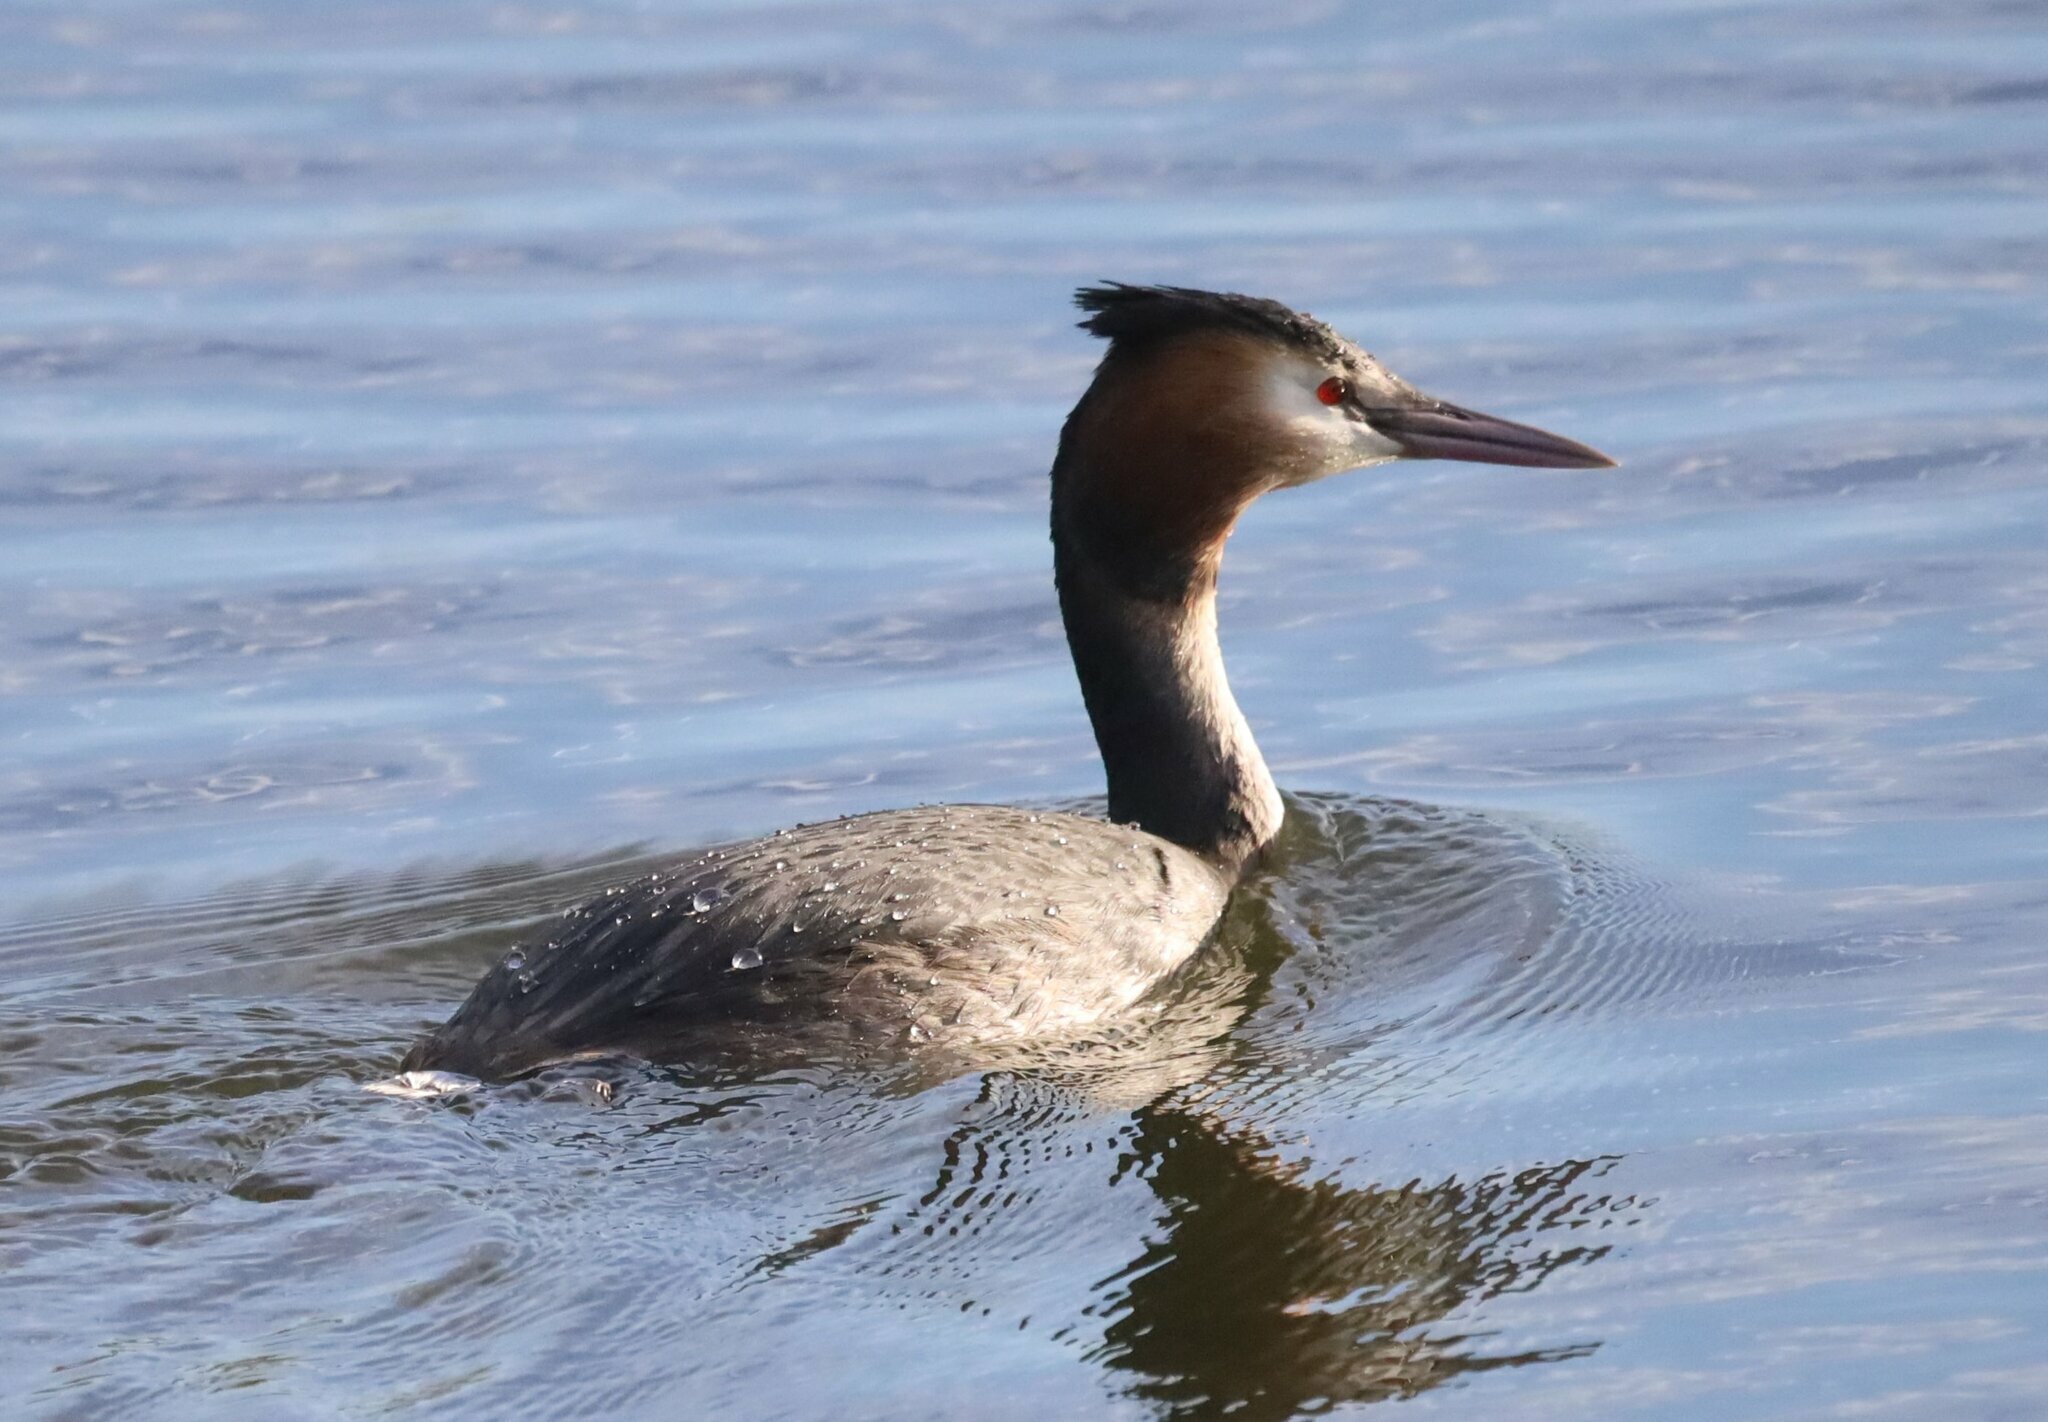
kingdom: Animalia
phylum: Chordata
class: Aves
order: Podicipediformes
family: Podicipedidae
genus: Podiceps
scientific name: Podiceps cristatus
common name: Great crested grebe
